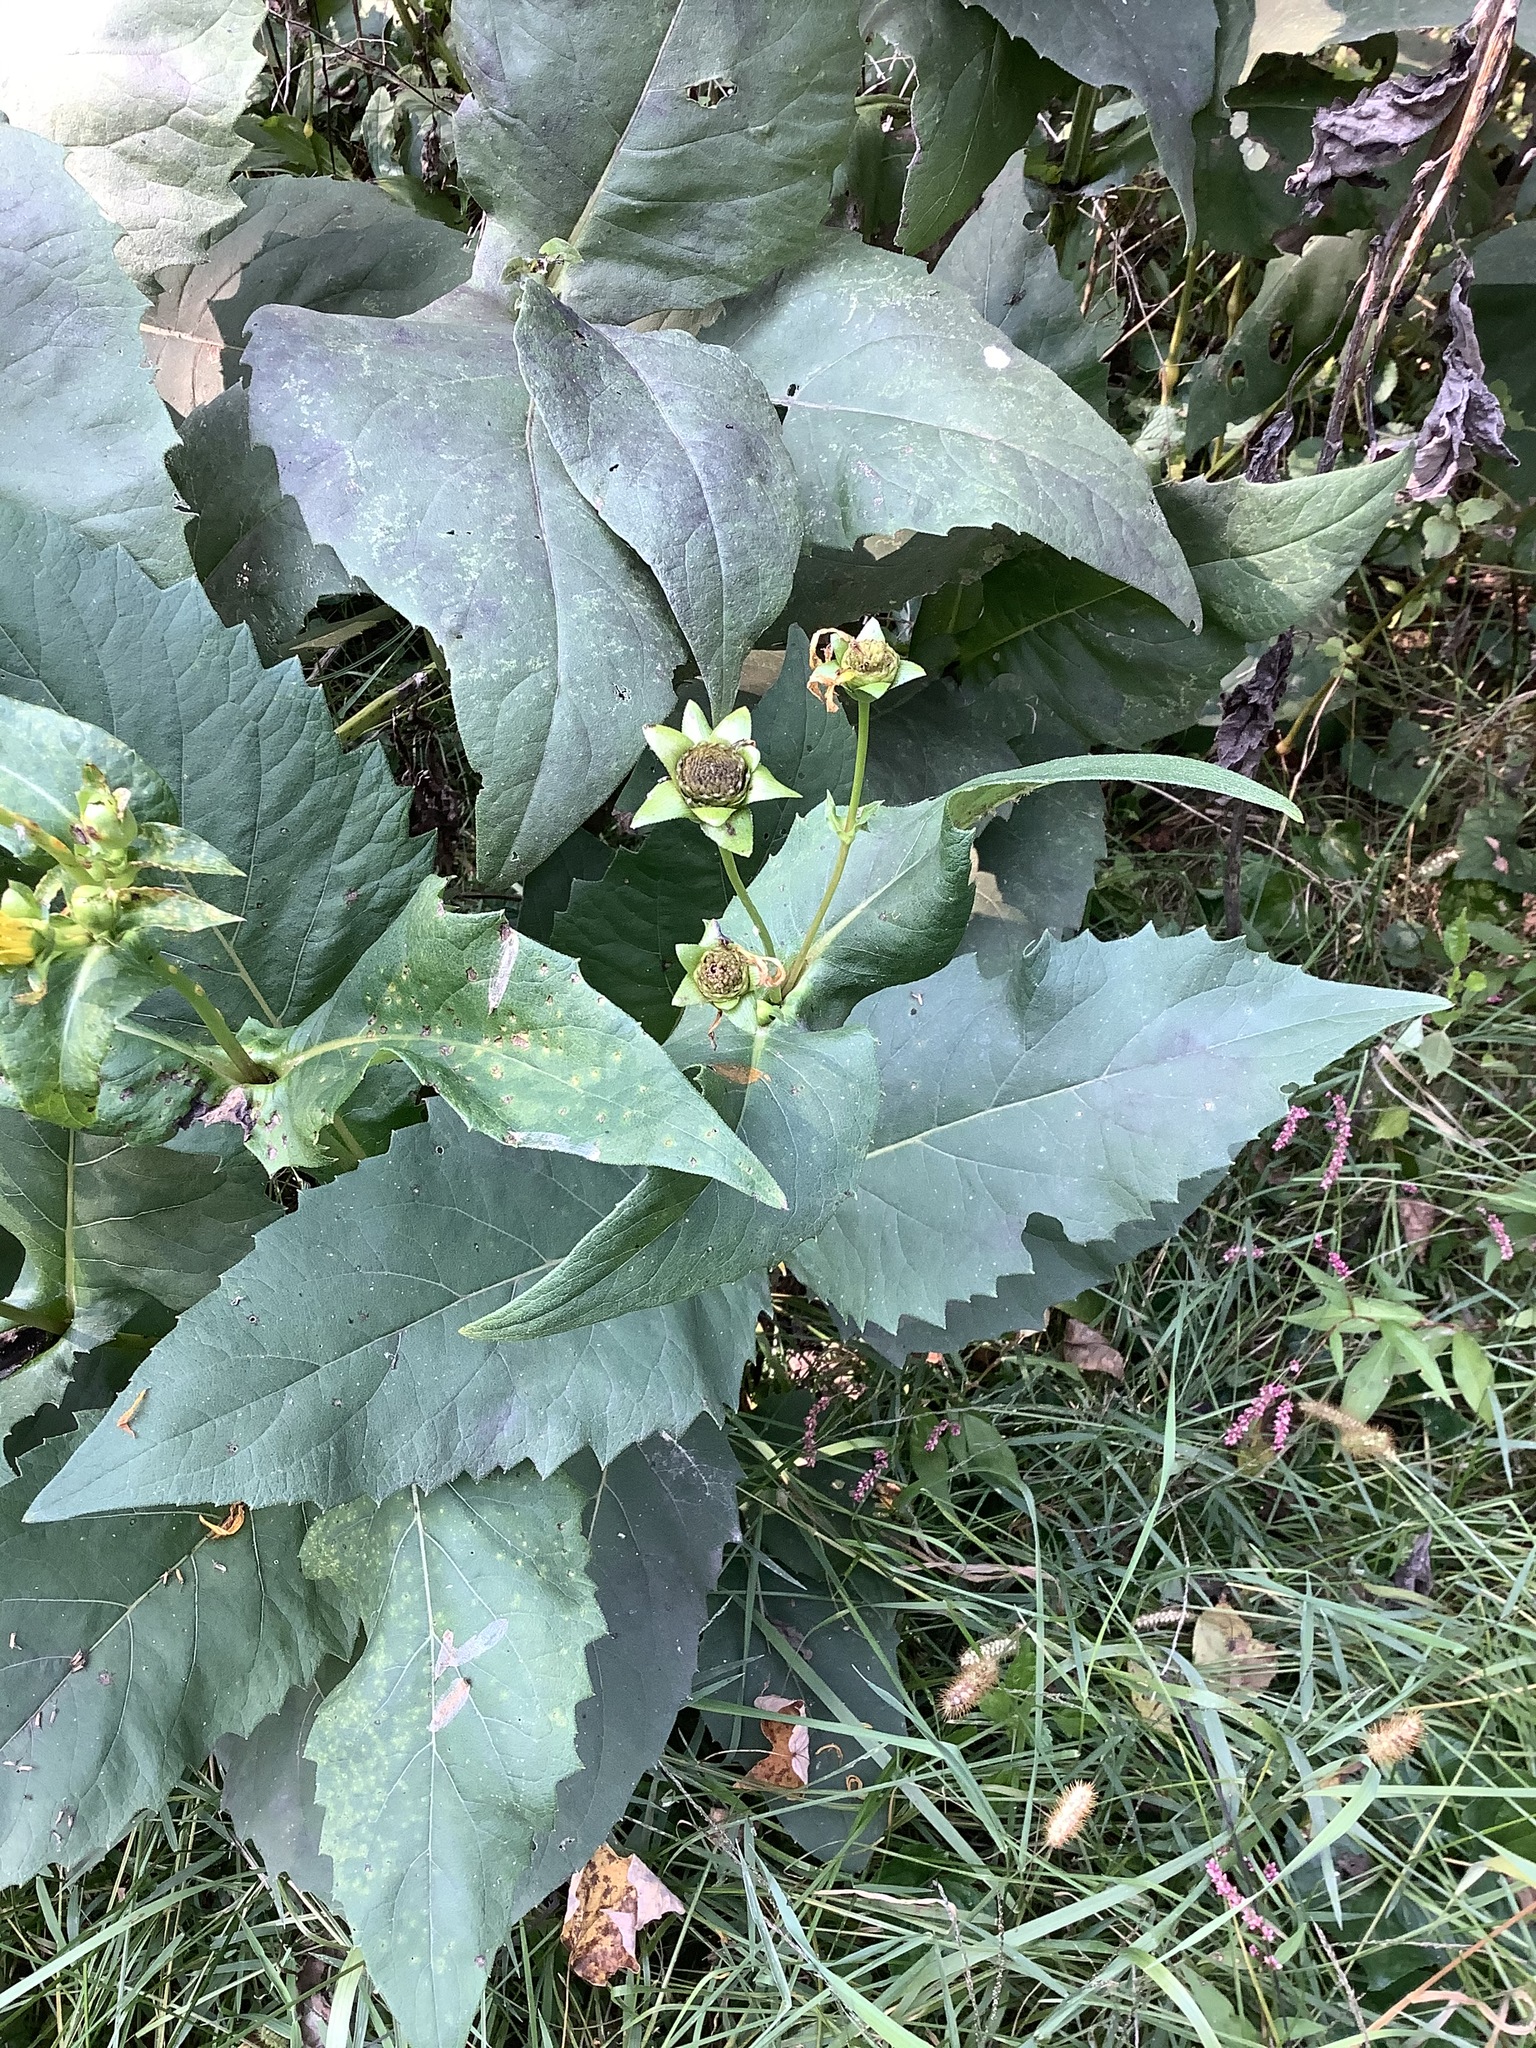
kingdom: Plantae
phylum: Tracheophyta
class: Magnoliopsida
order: Asterales
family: Asteraceae
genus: Silphium
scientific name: Silphium perfoliatum
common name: Cup-plant
